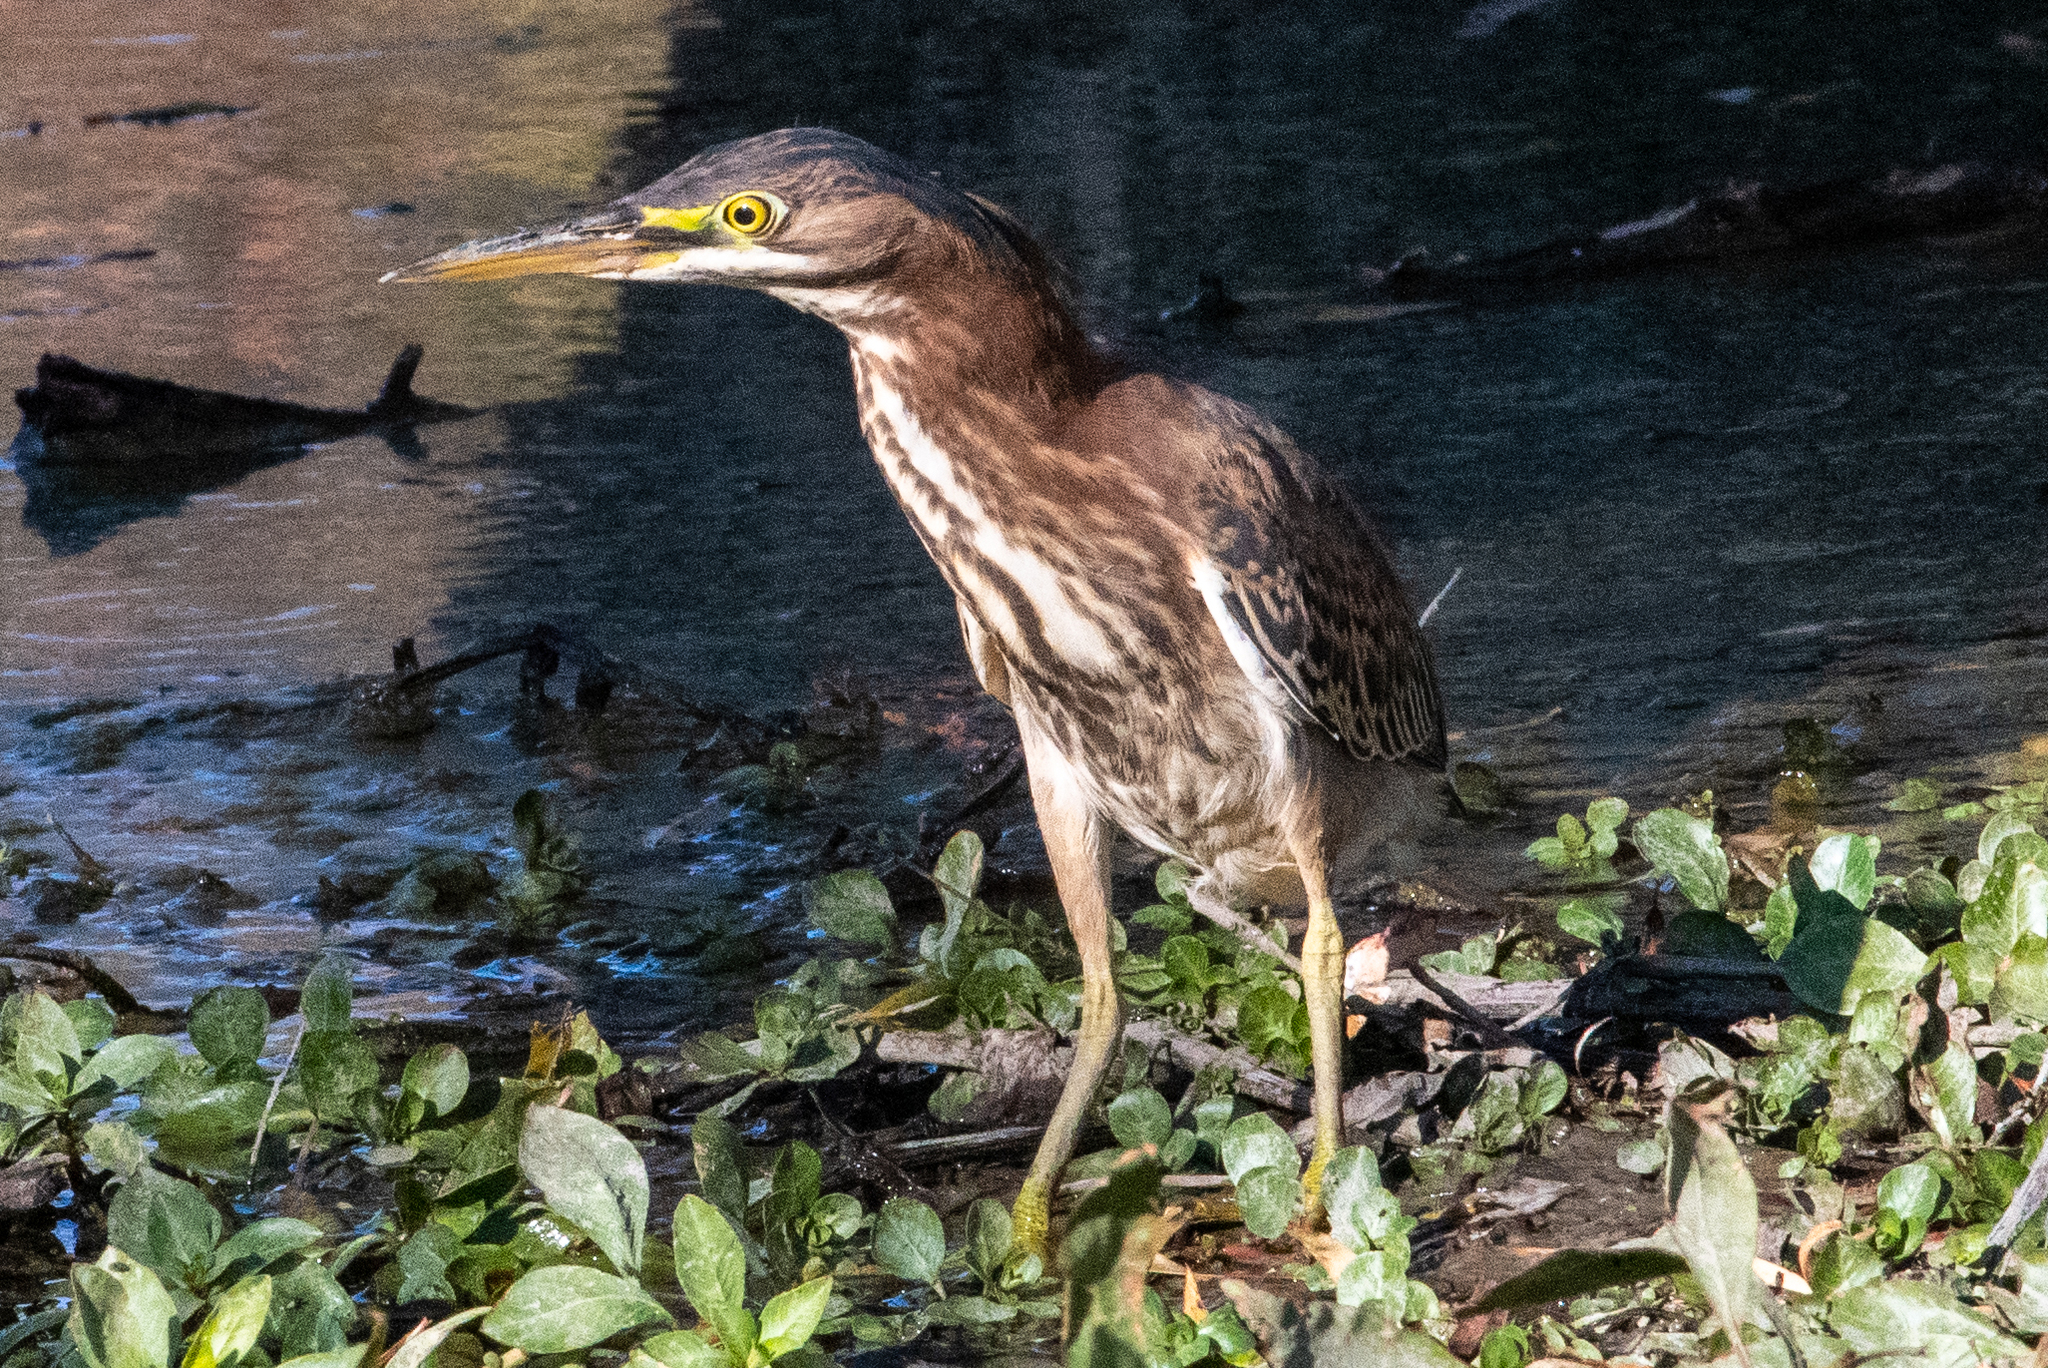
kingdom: Animalia
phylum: Chordata
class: Aves
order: Pelecaniformes
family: Ardeidae
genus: Butorides
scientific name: Butorides virescens
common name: Green heron
